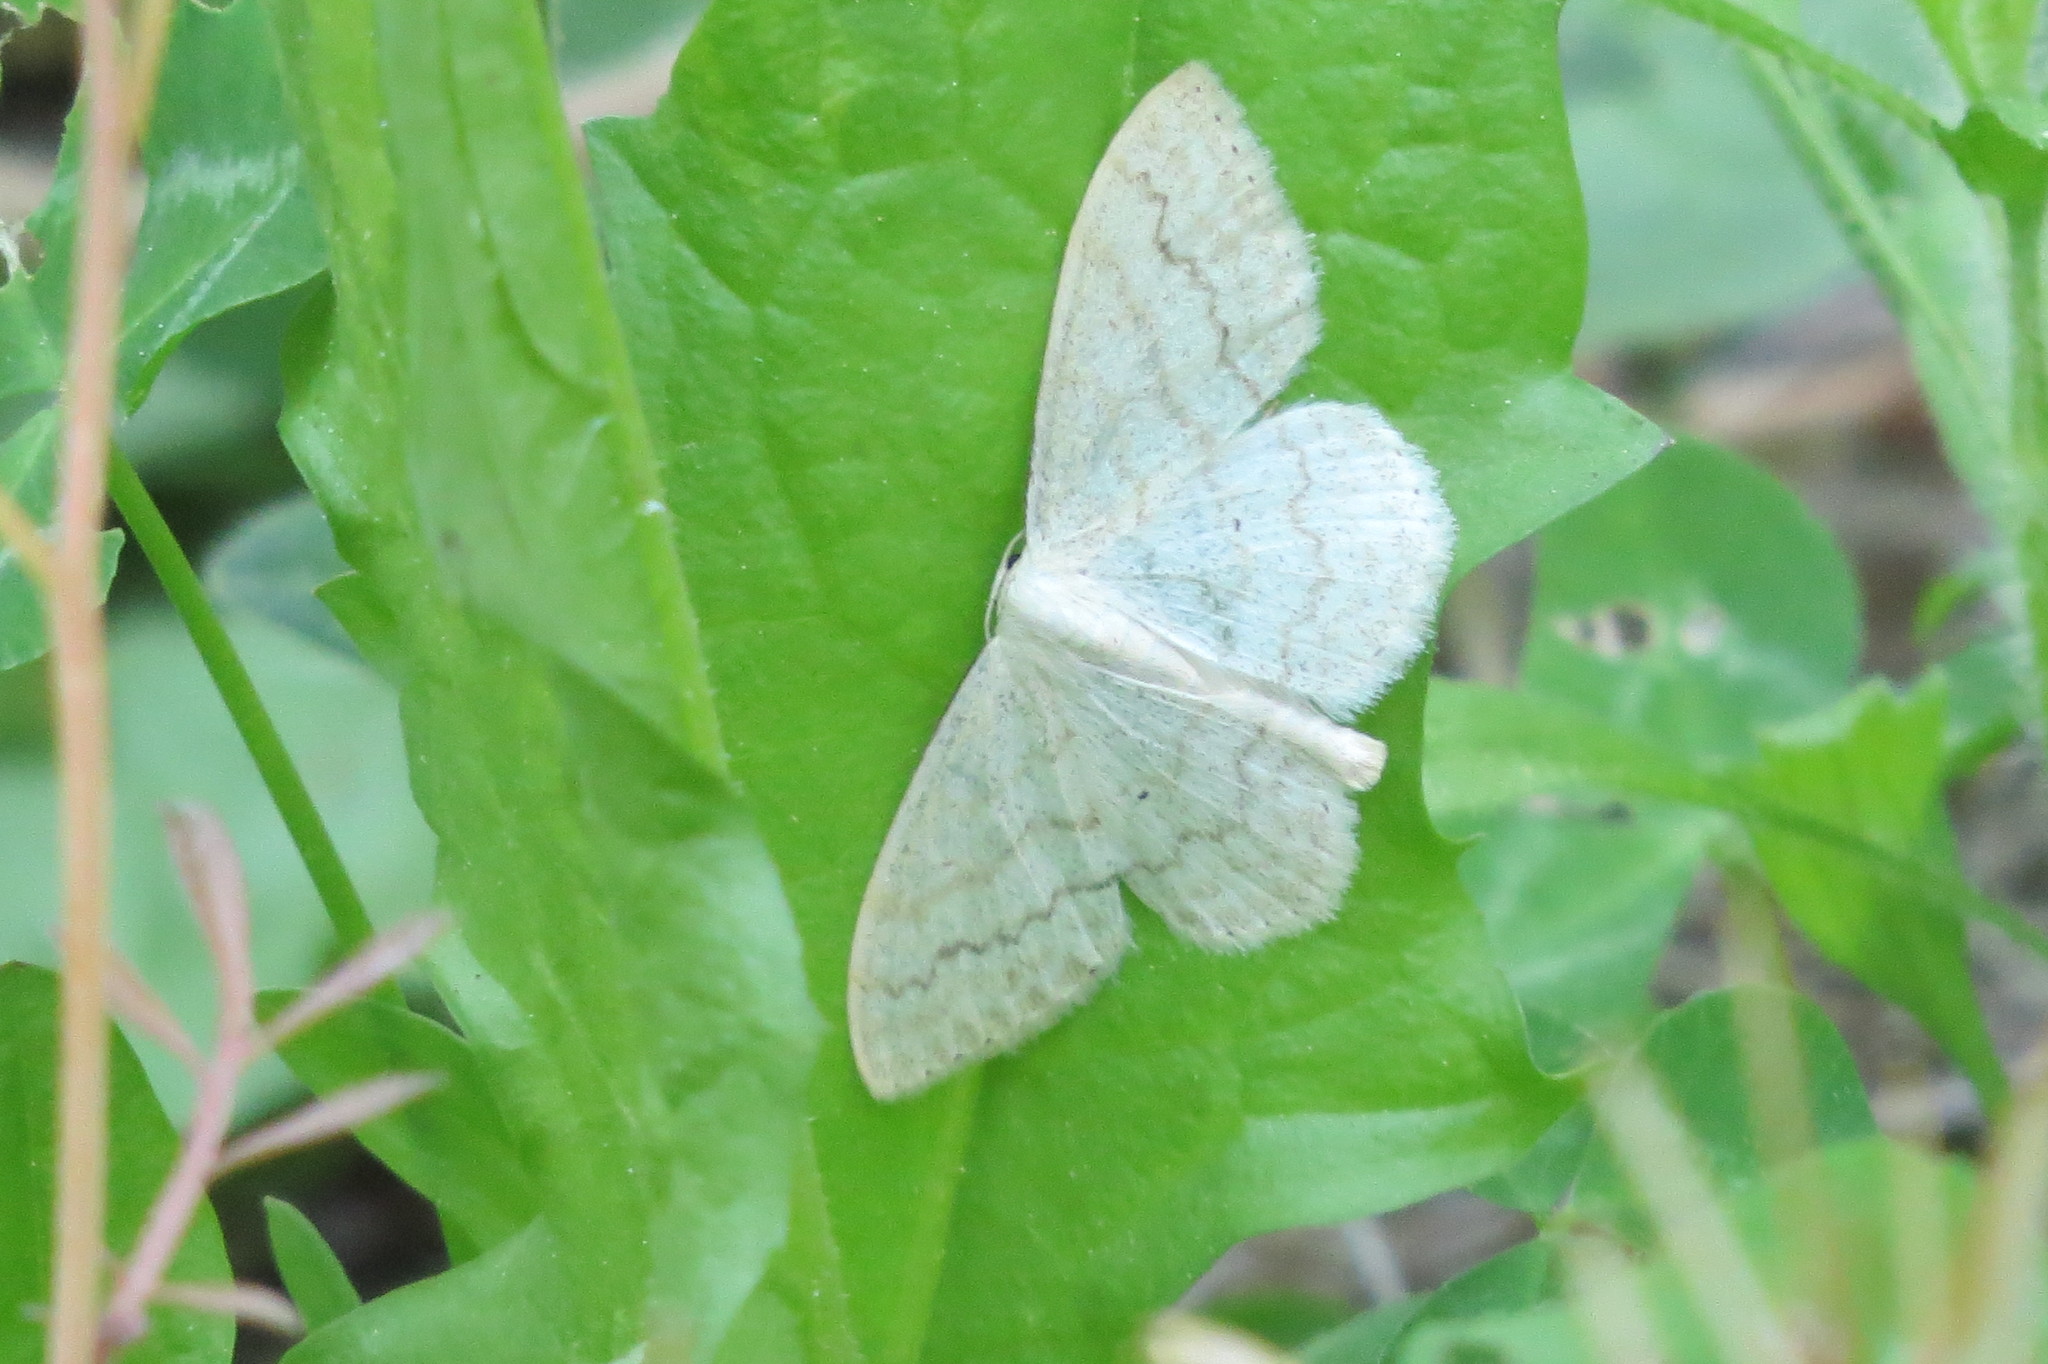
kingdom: Animalia
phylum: Arthropoda
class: Insecta
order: Lepidoptera
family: Geometridae
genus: Scopula
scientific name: Scopula floslactata
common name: Cream wave
